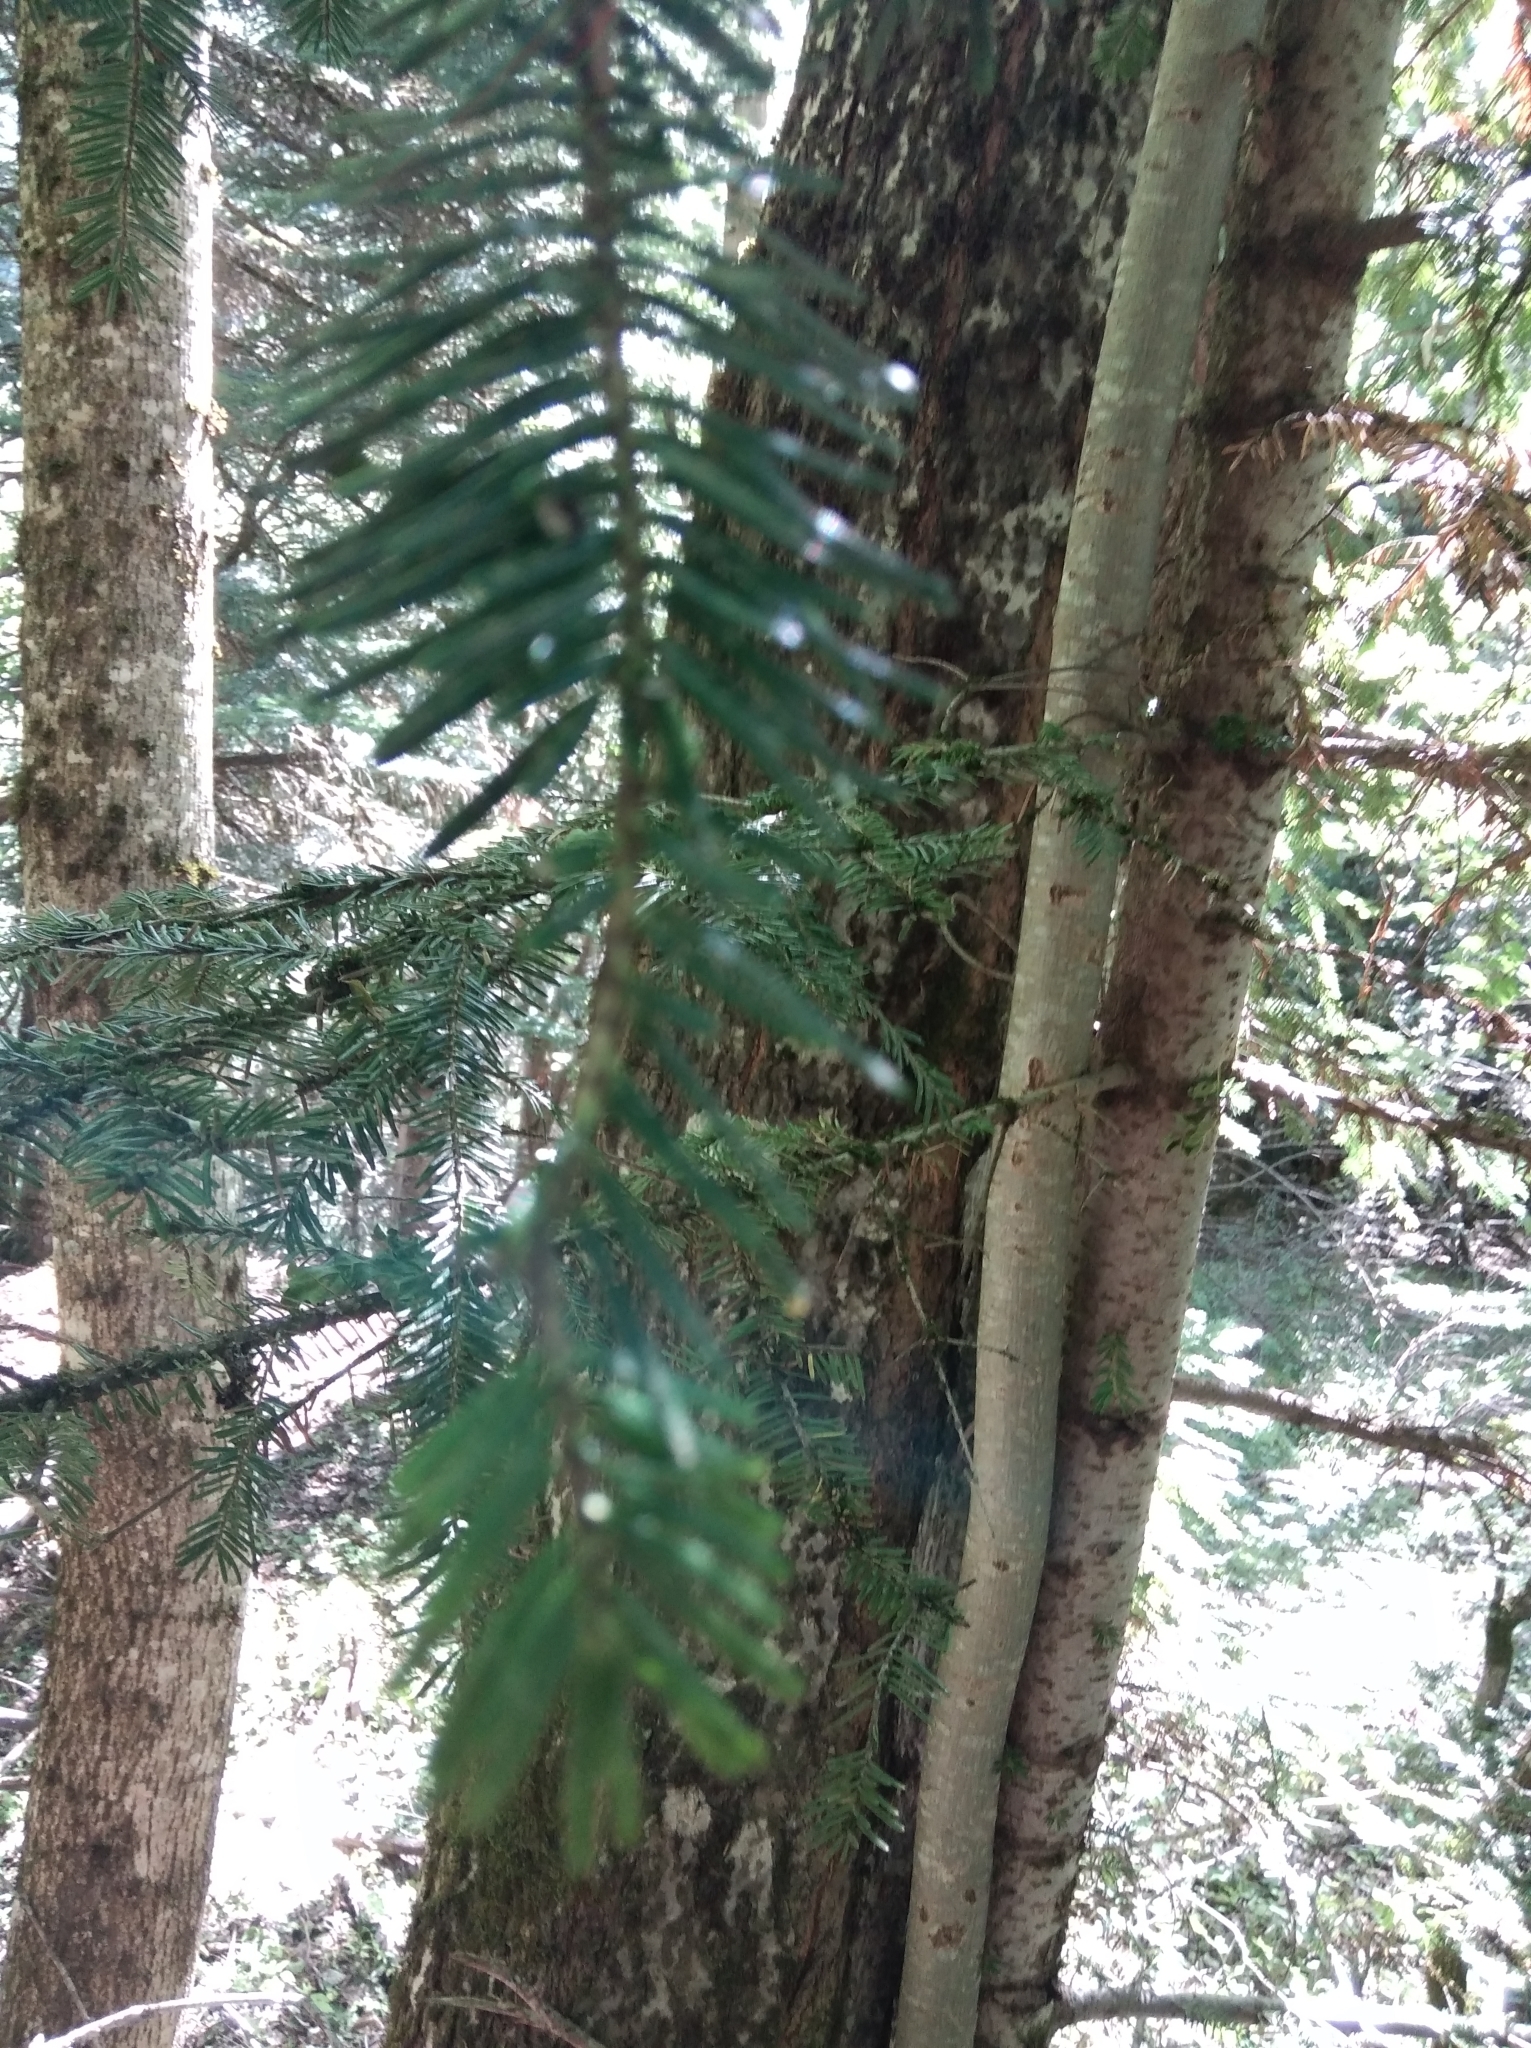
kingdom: Plantae
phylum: Tracheophyta
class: Pinopsida
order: Pinales
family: Pinaceae
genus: Abies
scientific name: Abies alba
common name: Silver fir
